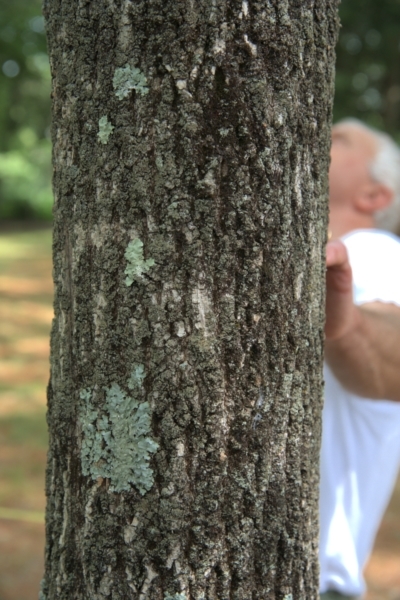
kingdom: Plantae
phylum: Tracheophyta
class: Magnoliopsida
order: Lamiales
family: Oleaceae
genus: Fraxinus
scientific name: Fraxinus americana
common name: White ash
